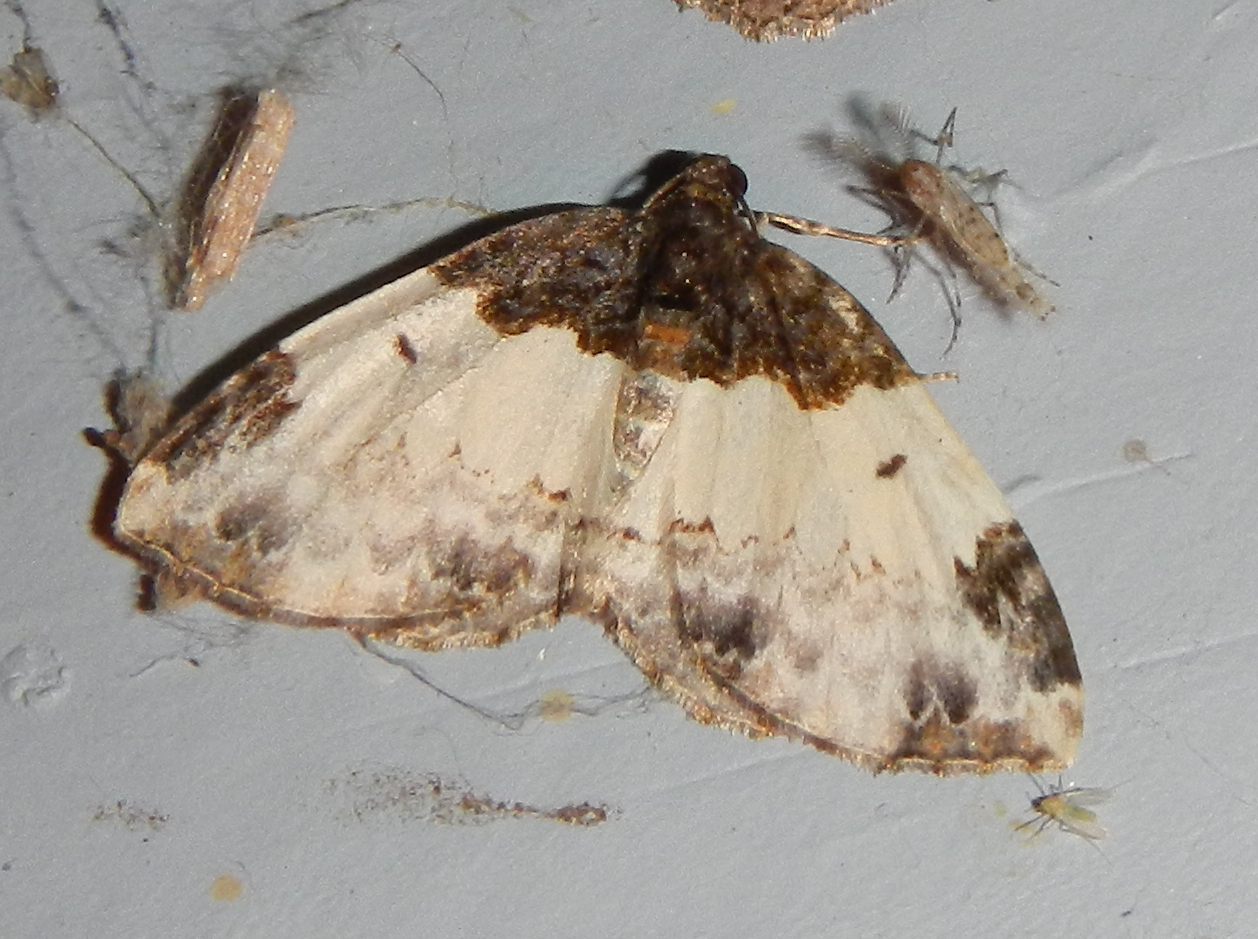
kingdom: Animalia
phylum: Arthropoda
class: Insecta
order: Lepidoptera
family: Geometridae
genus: Mesoleuca
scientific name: Mesoleuca ruficillata
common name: White-ribboned carpet moth
